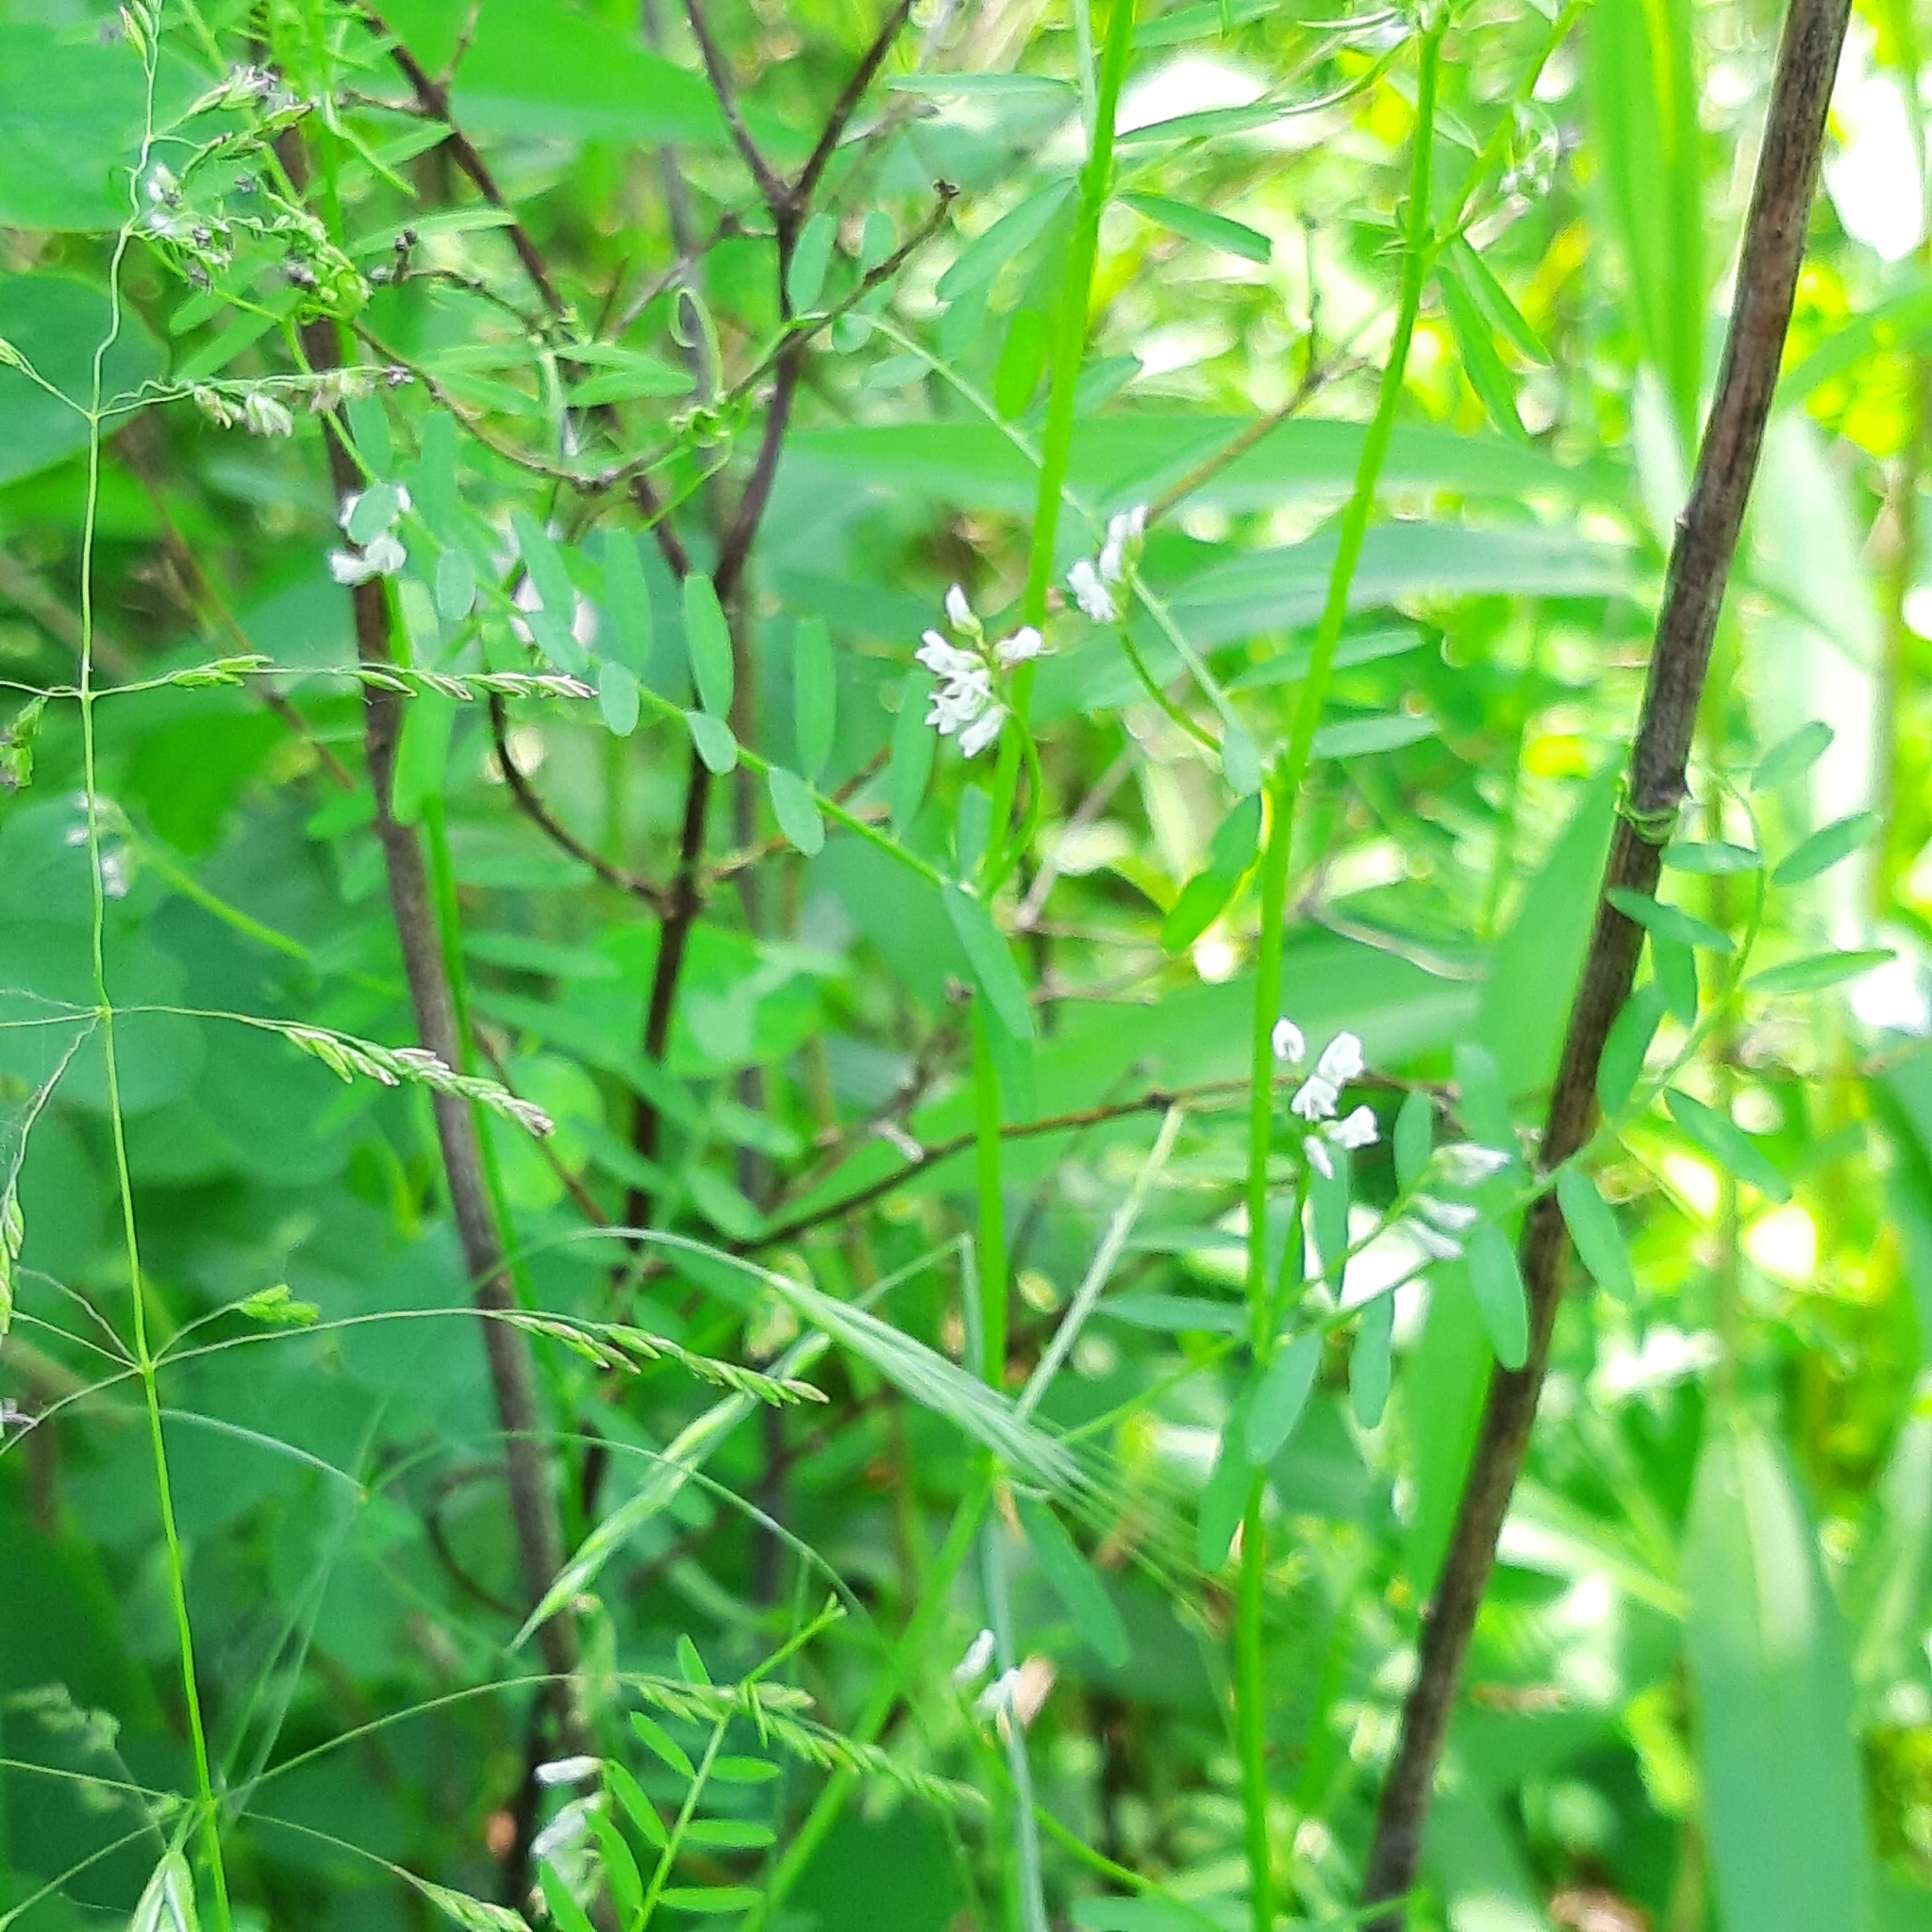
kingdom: Plantae
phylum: Tracheophyta
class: Magnoliopsida
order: Fabales
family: Fabaceae
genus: Vicia
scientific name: Vicia hirsuta
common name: Tiny vetch
